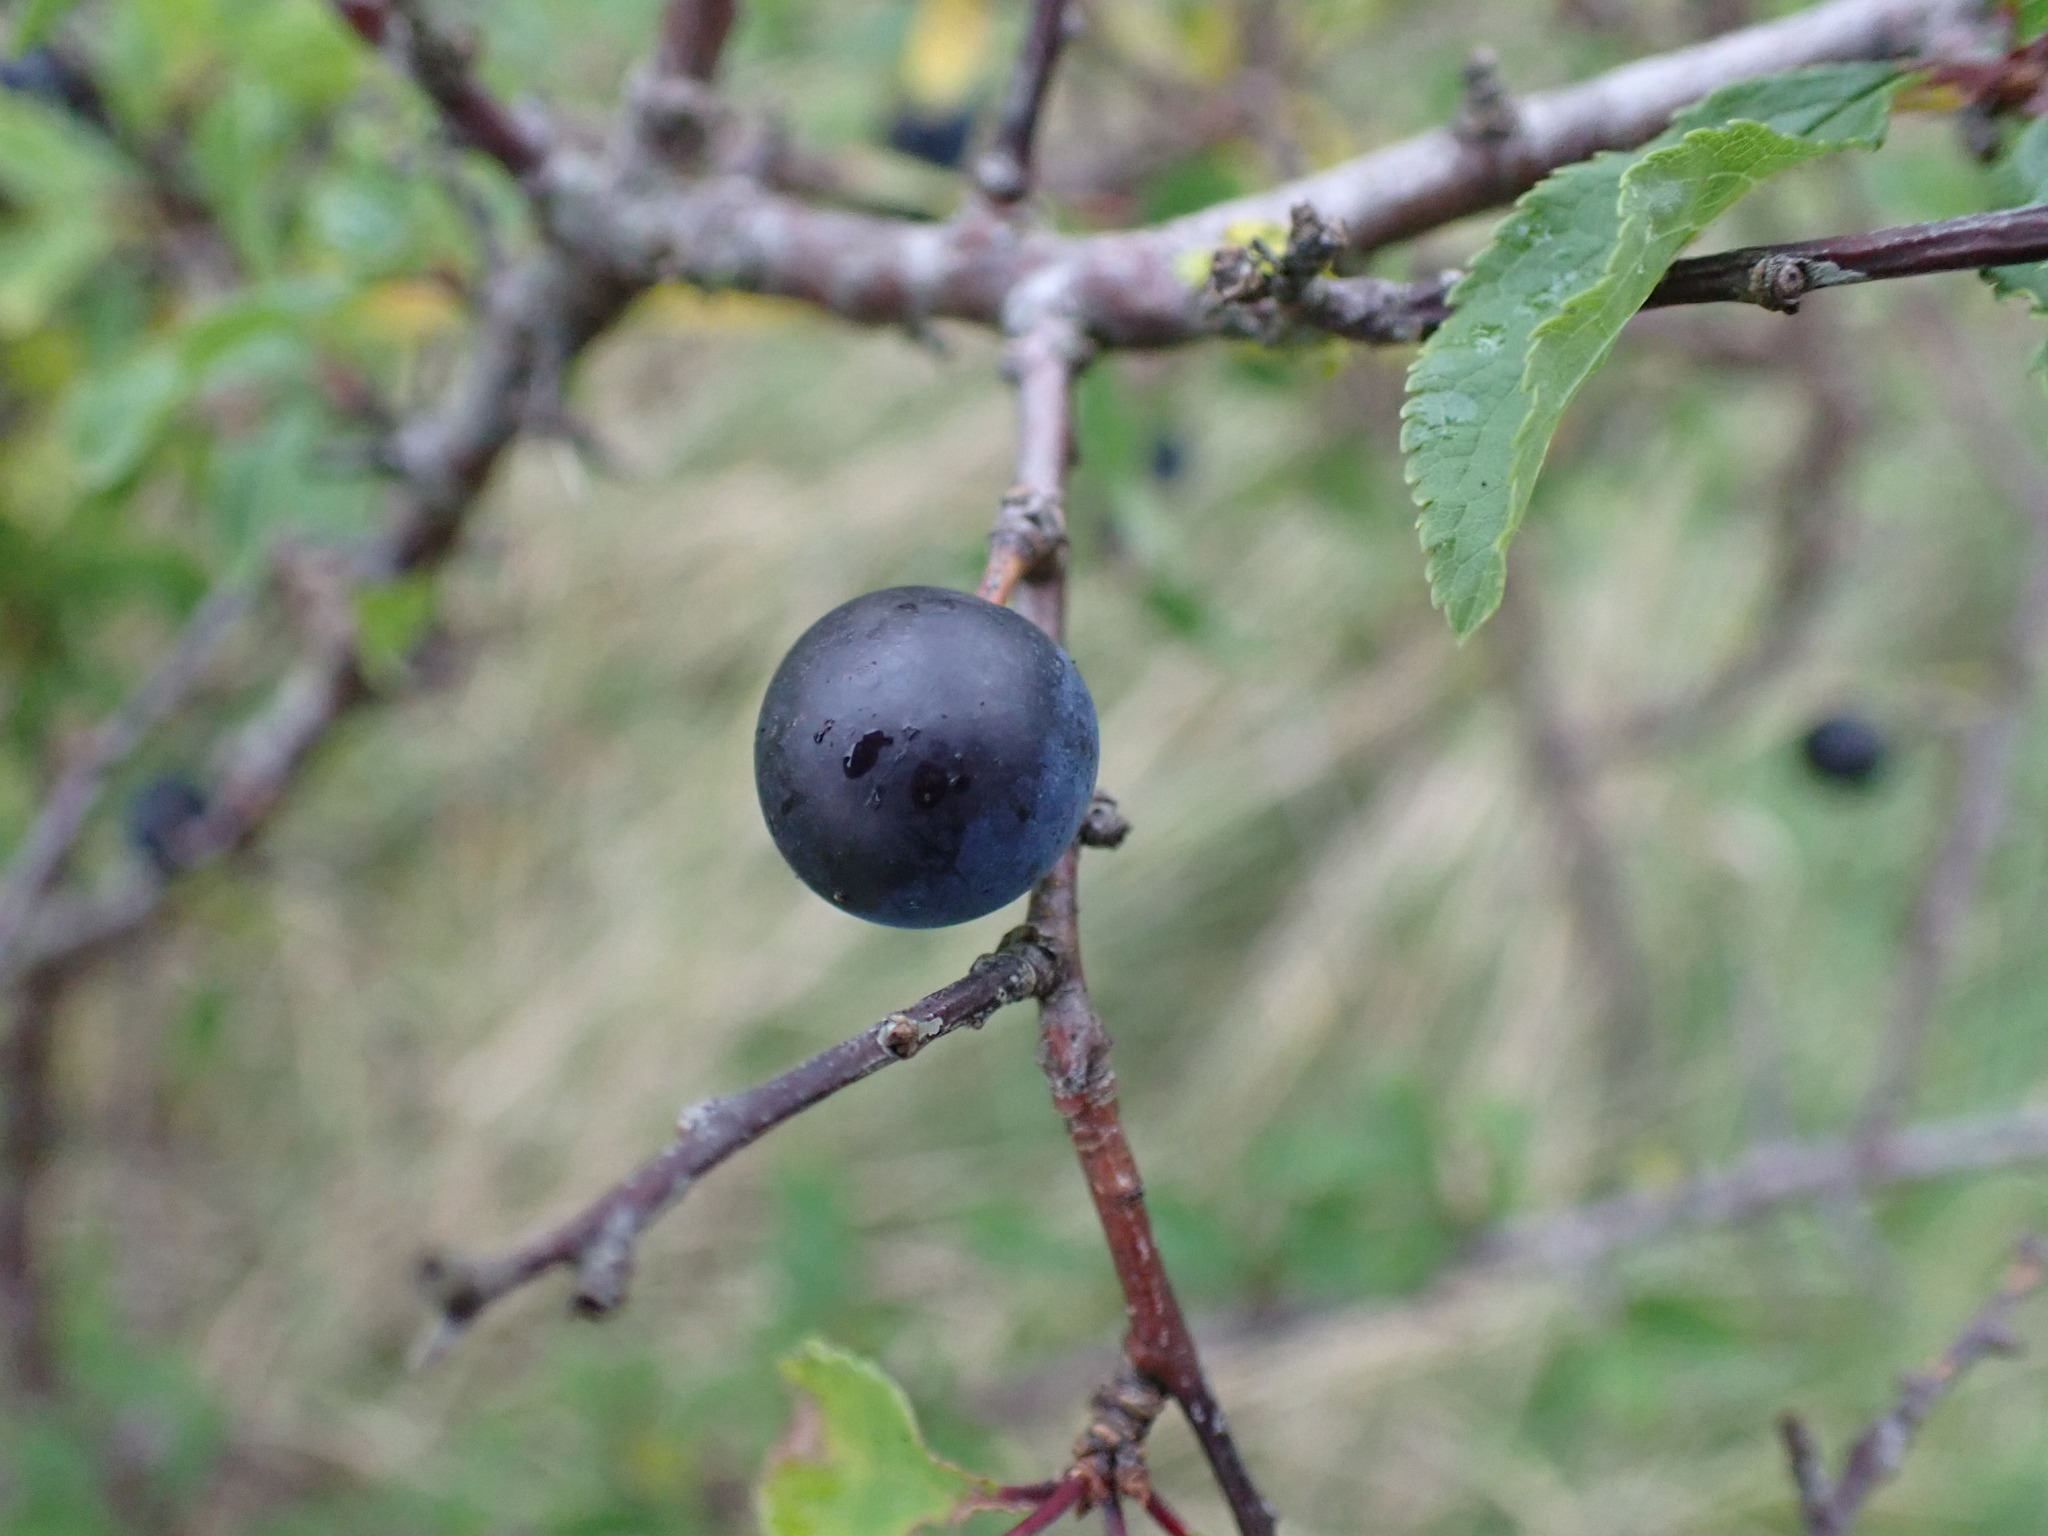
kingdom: Plantae
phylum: Tracheophyta
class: Magnoliopsida
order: Rosales
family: Rosaceae
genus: Prunus
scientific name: Prunus spinosa
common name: Blackthorn
